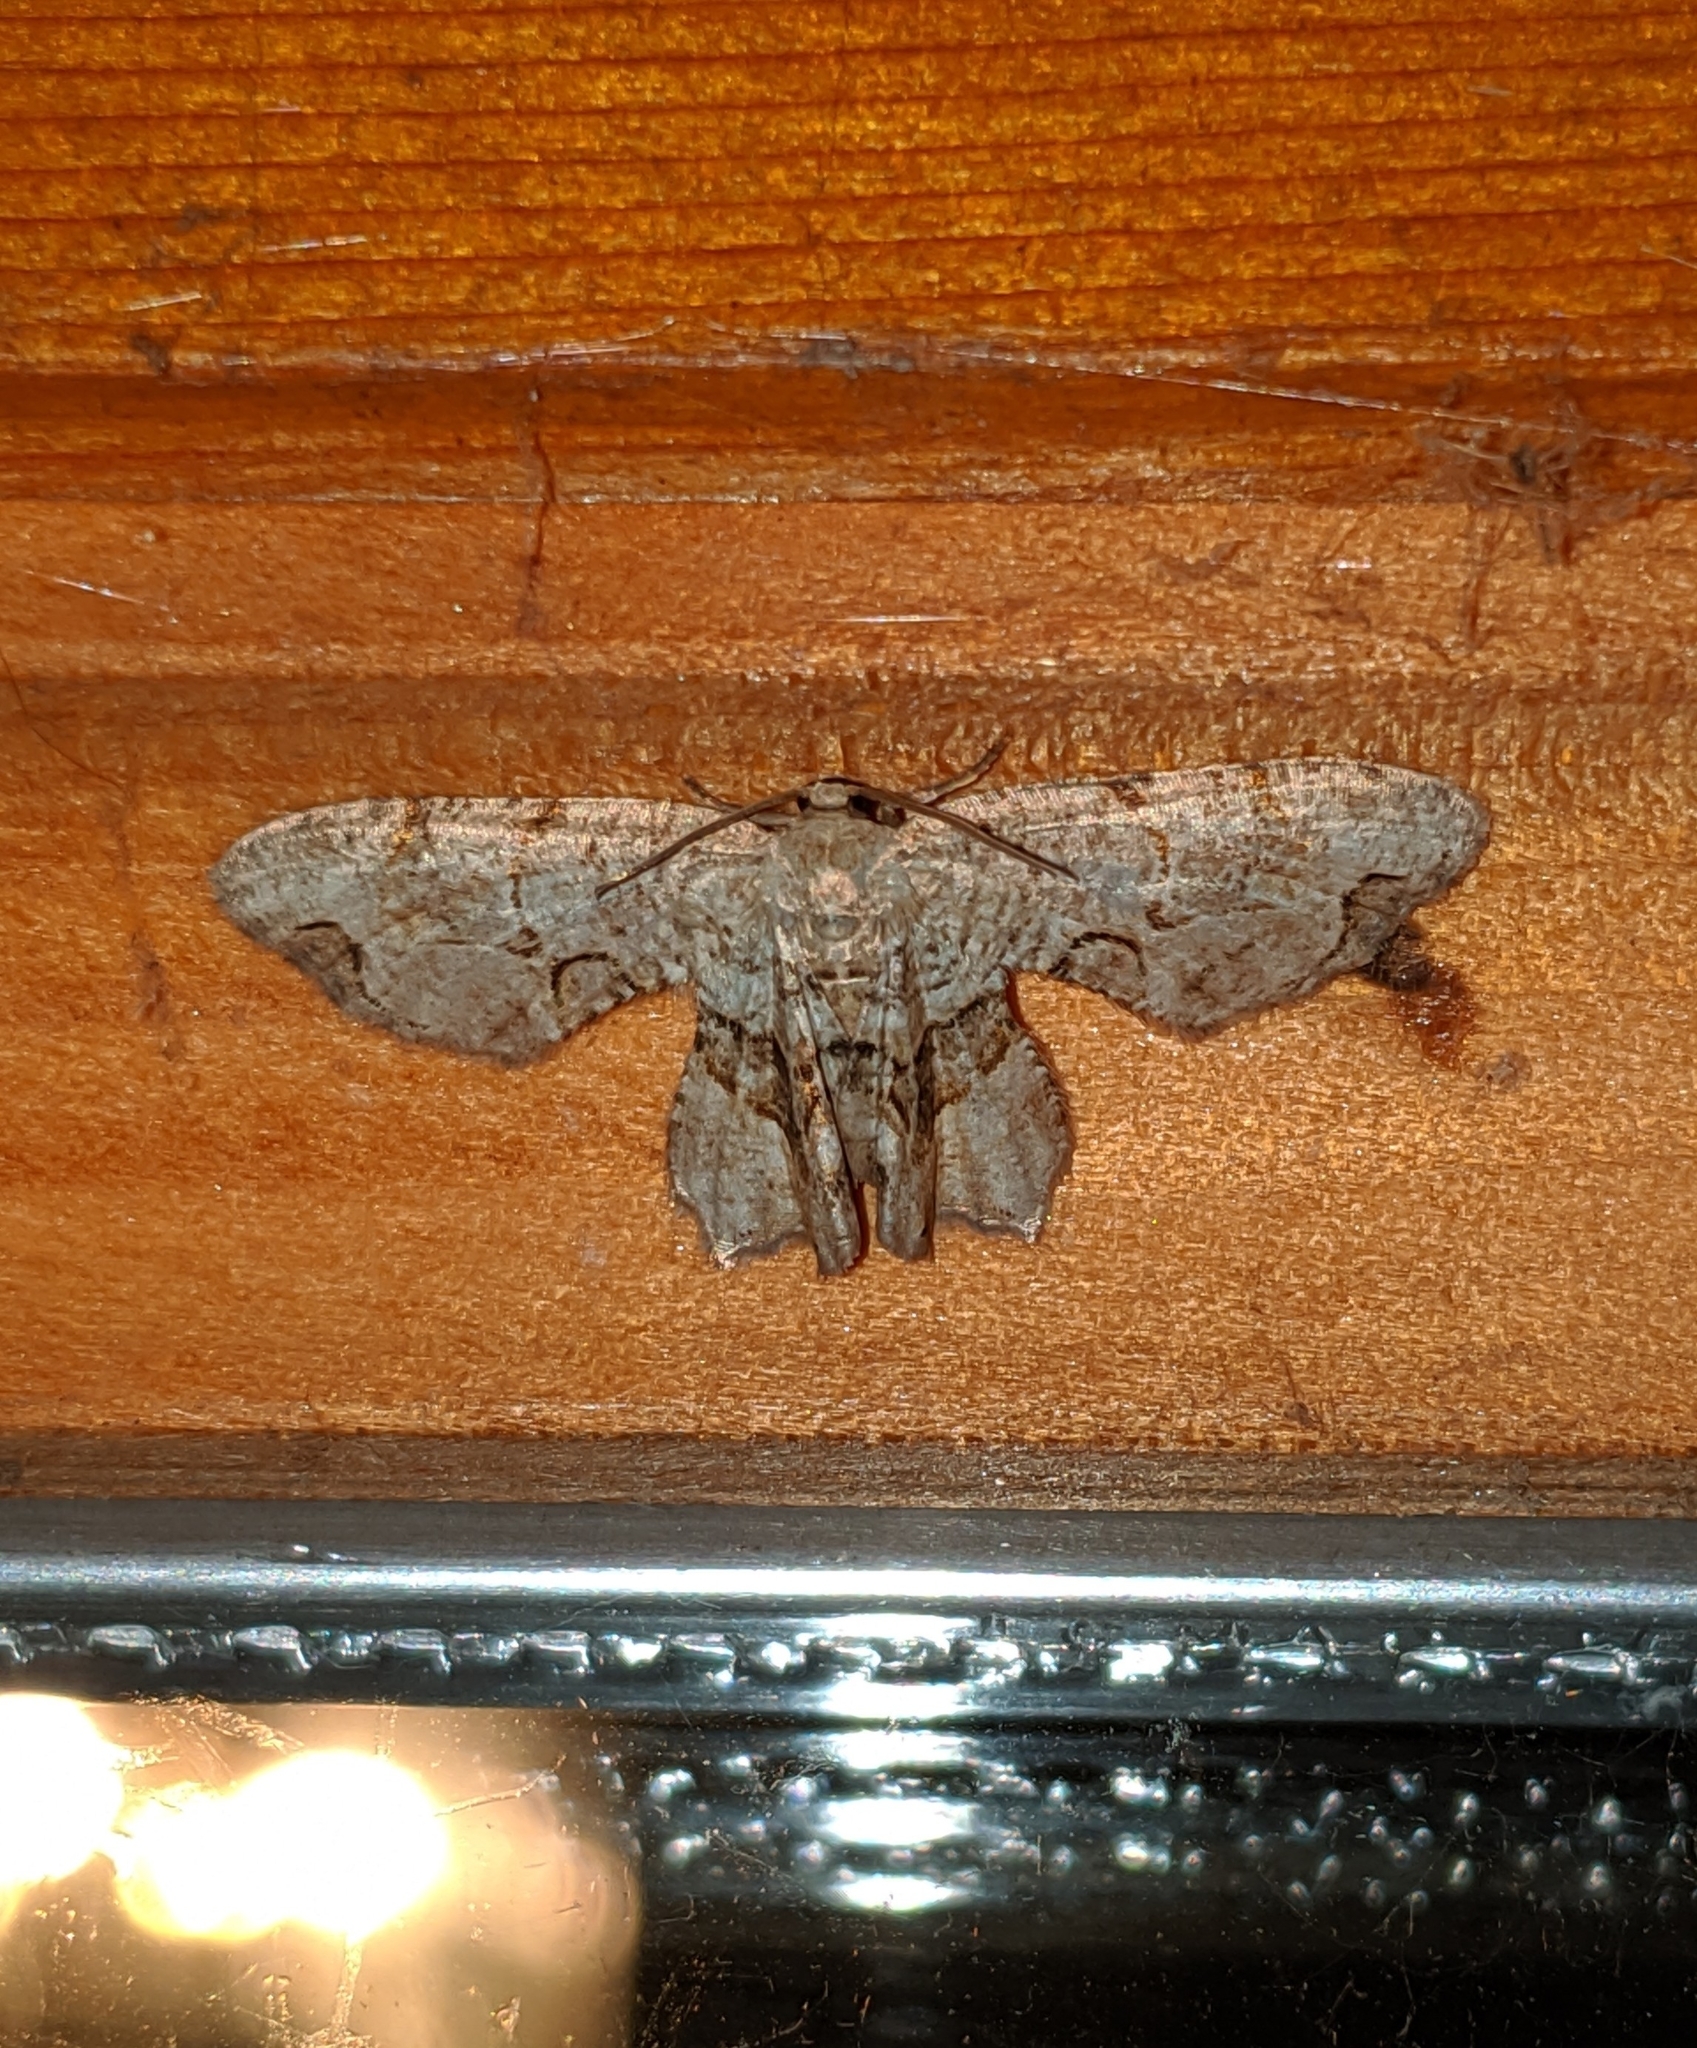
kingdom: Animalia
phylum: Arthropoda
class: Insecta
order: Lepidoptera
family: Uraniidae
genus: Epiplema
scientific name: Epiplema Callizzia amorata
